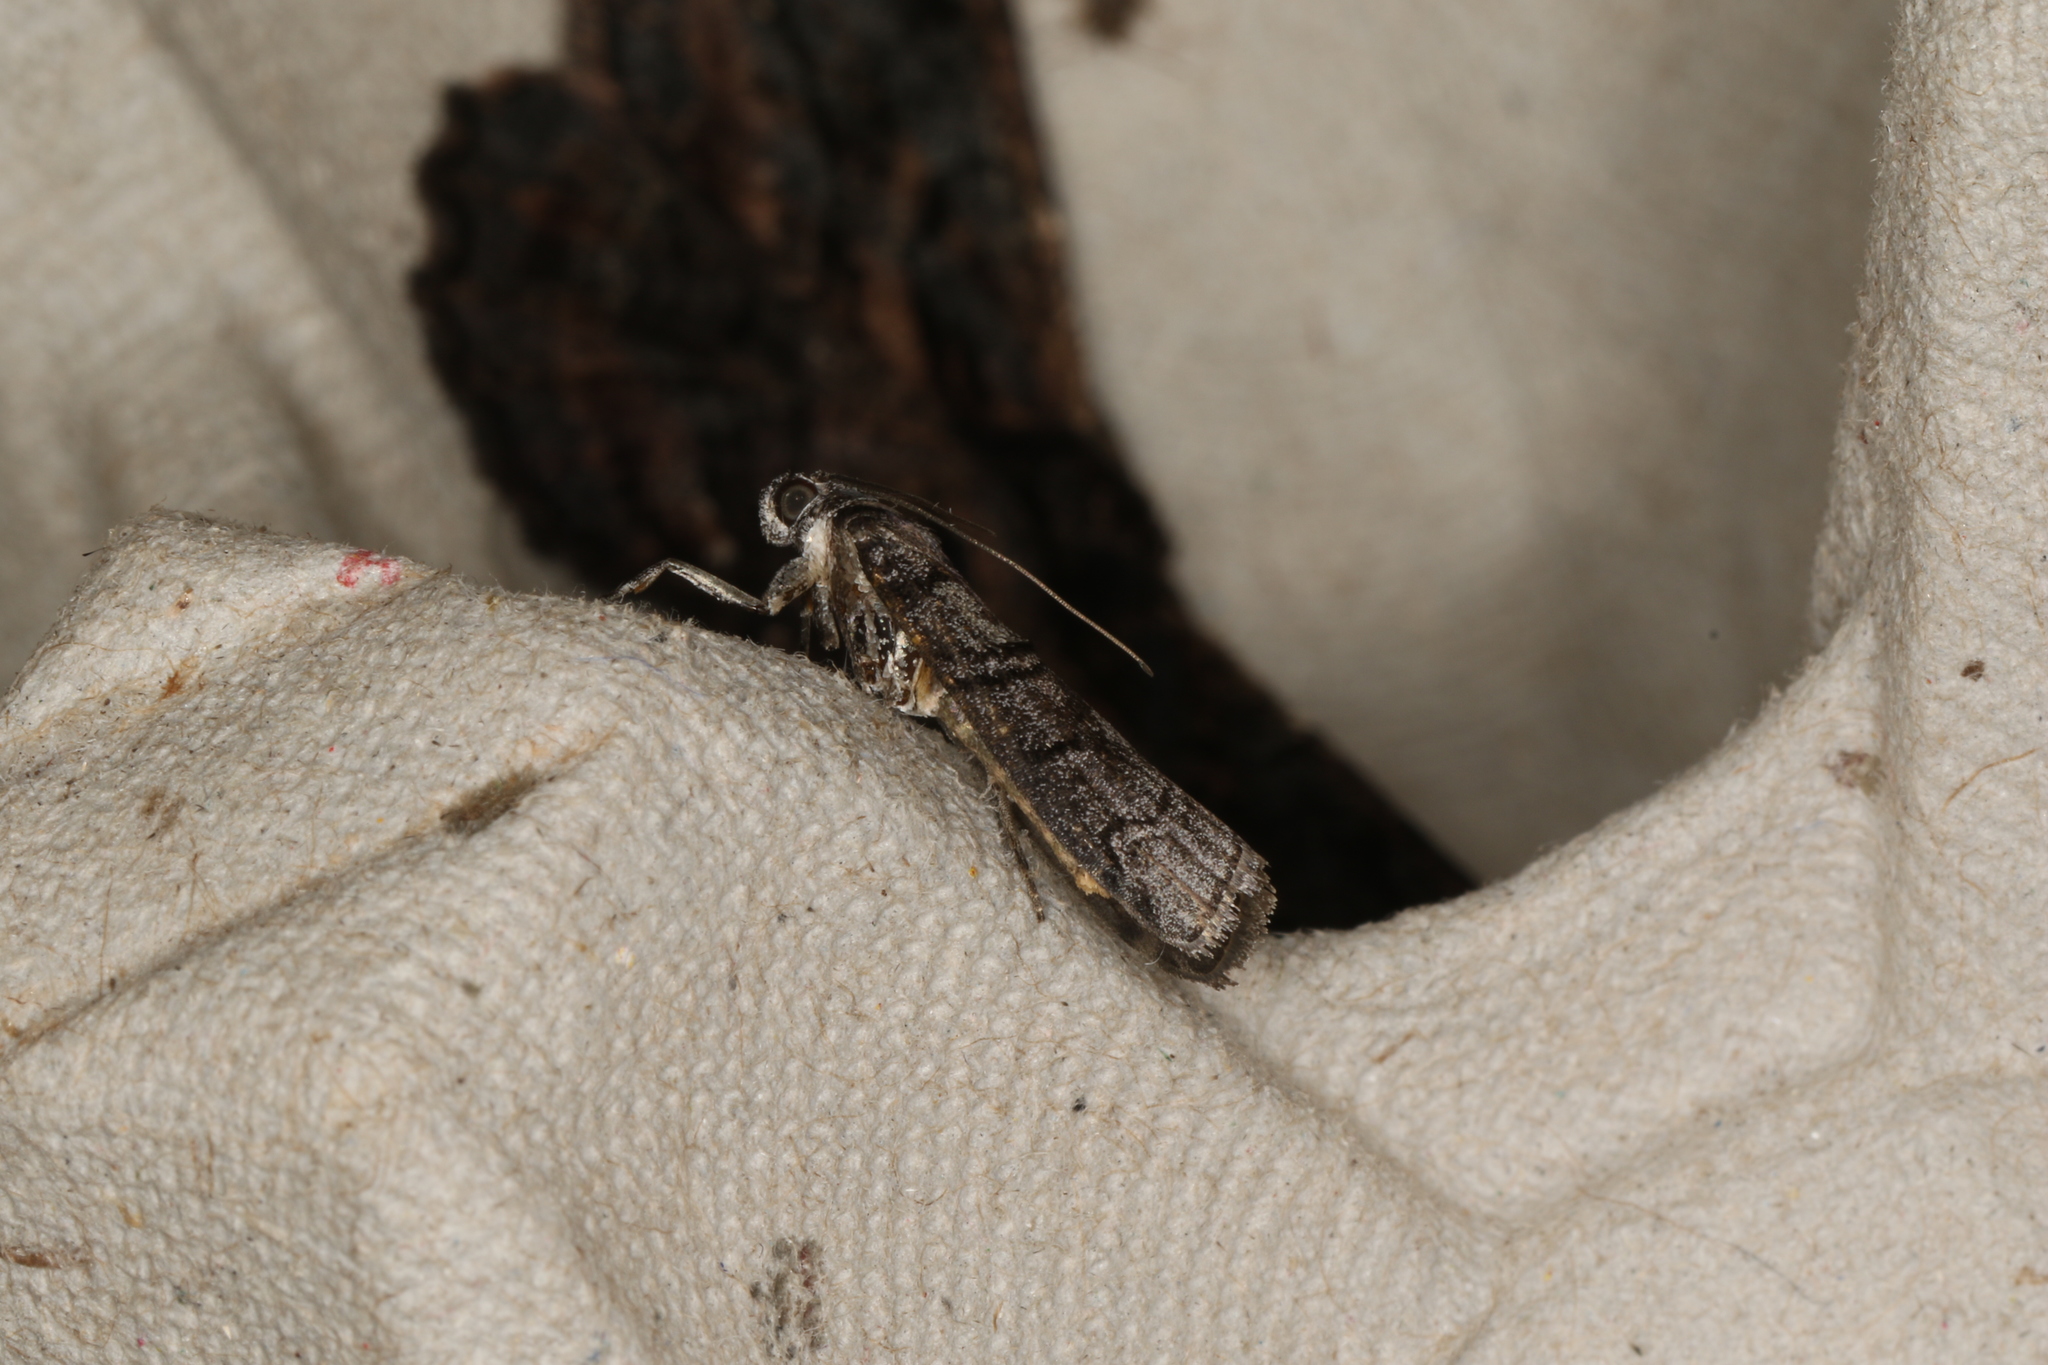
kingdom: Animalia
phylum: Arthropoda
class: Insecta
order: Lepidoptera
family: Pyralidae
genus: Ctenomeristis
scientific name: Ctenomeristis almella
